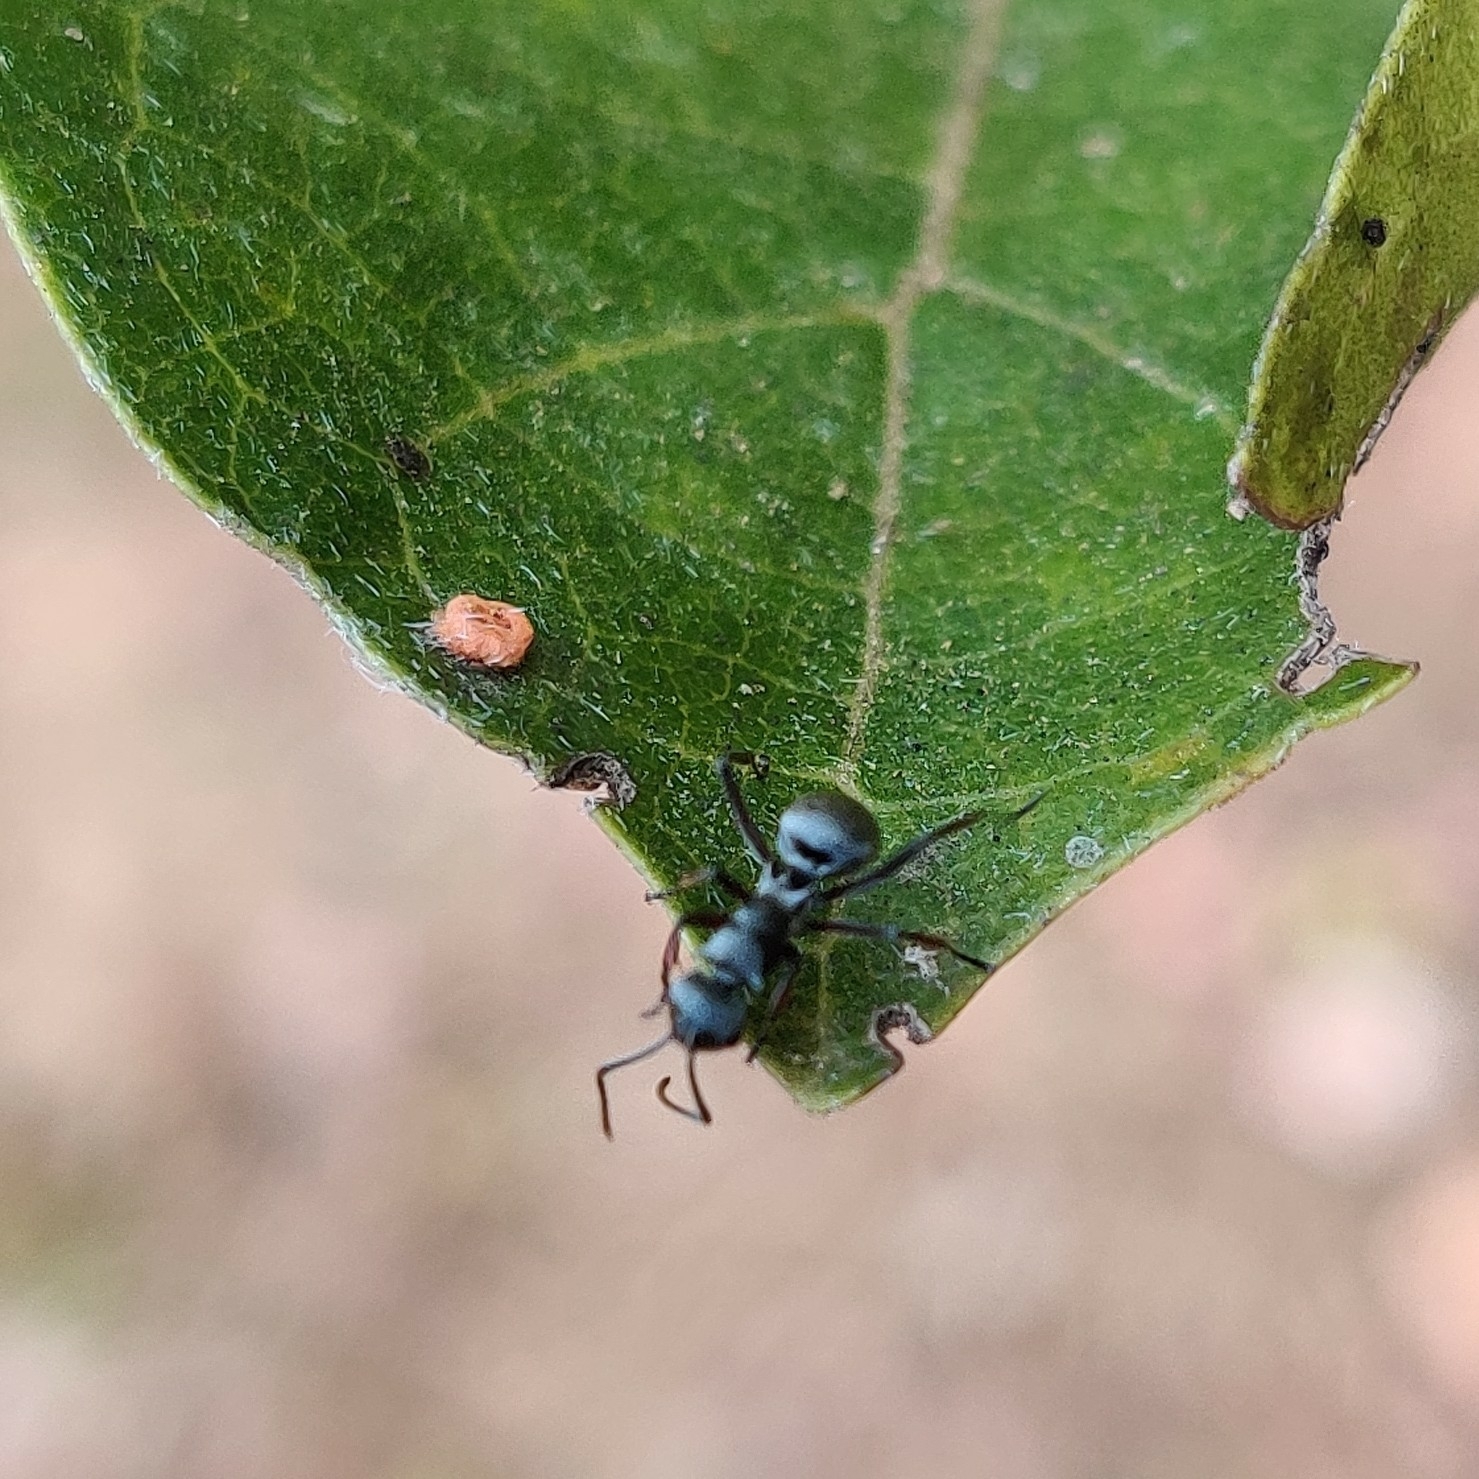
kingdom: Animalia
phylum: Arthropoda
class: Insecta
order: Hymenoptera
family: Formicidae
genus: Polyrhachis
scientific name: Polyrhachis tibialis
